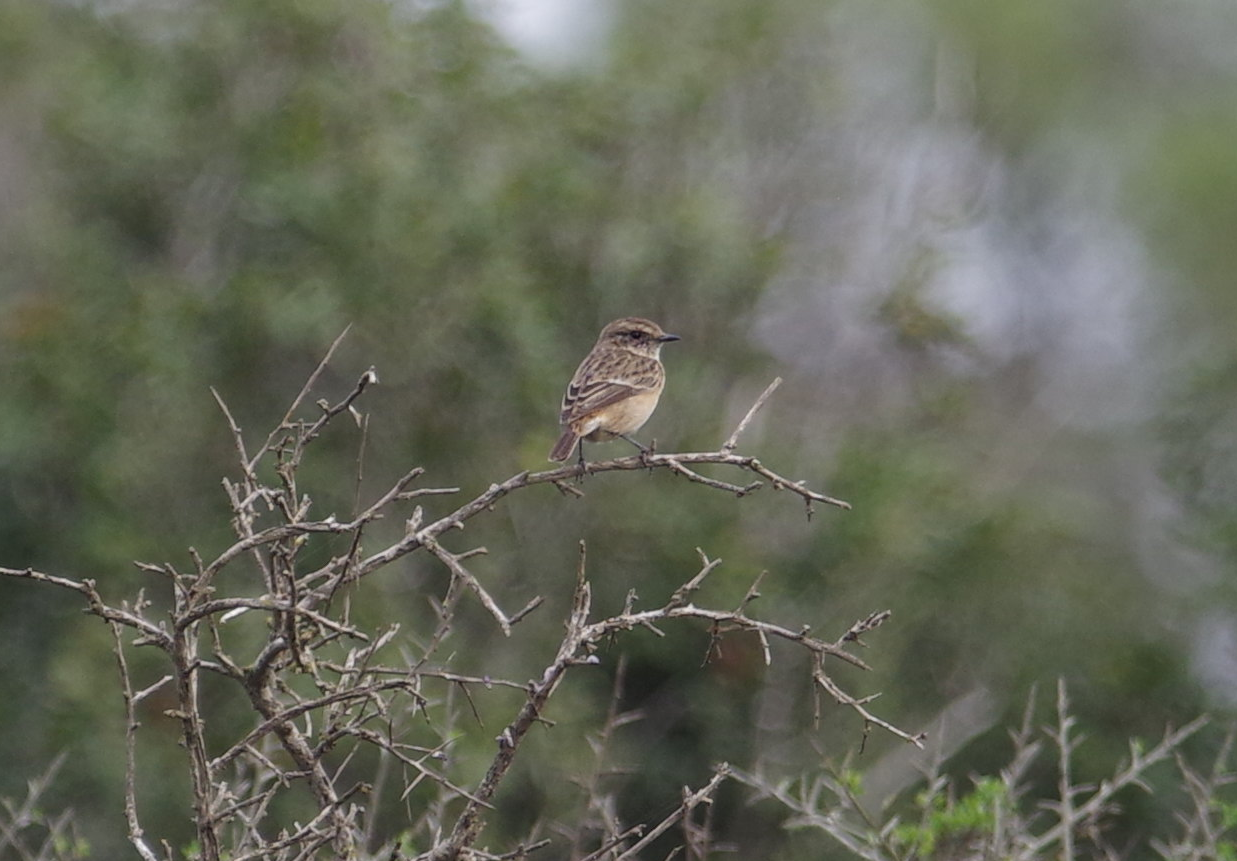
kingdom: Animalia
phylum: Chordata
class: Aves
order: Passeriformes
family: Muscicapidae
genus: Saxicola
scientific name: Saxicola rubetra
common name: Whinchat
